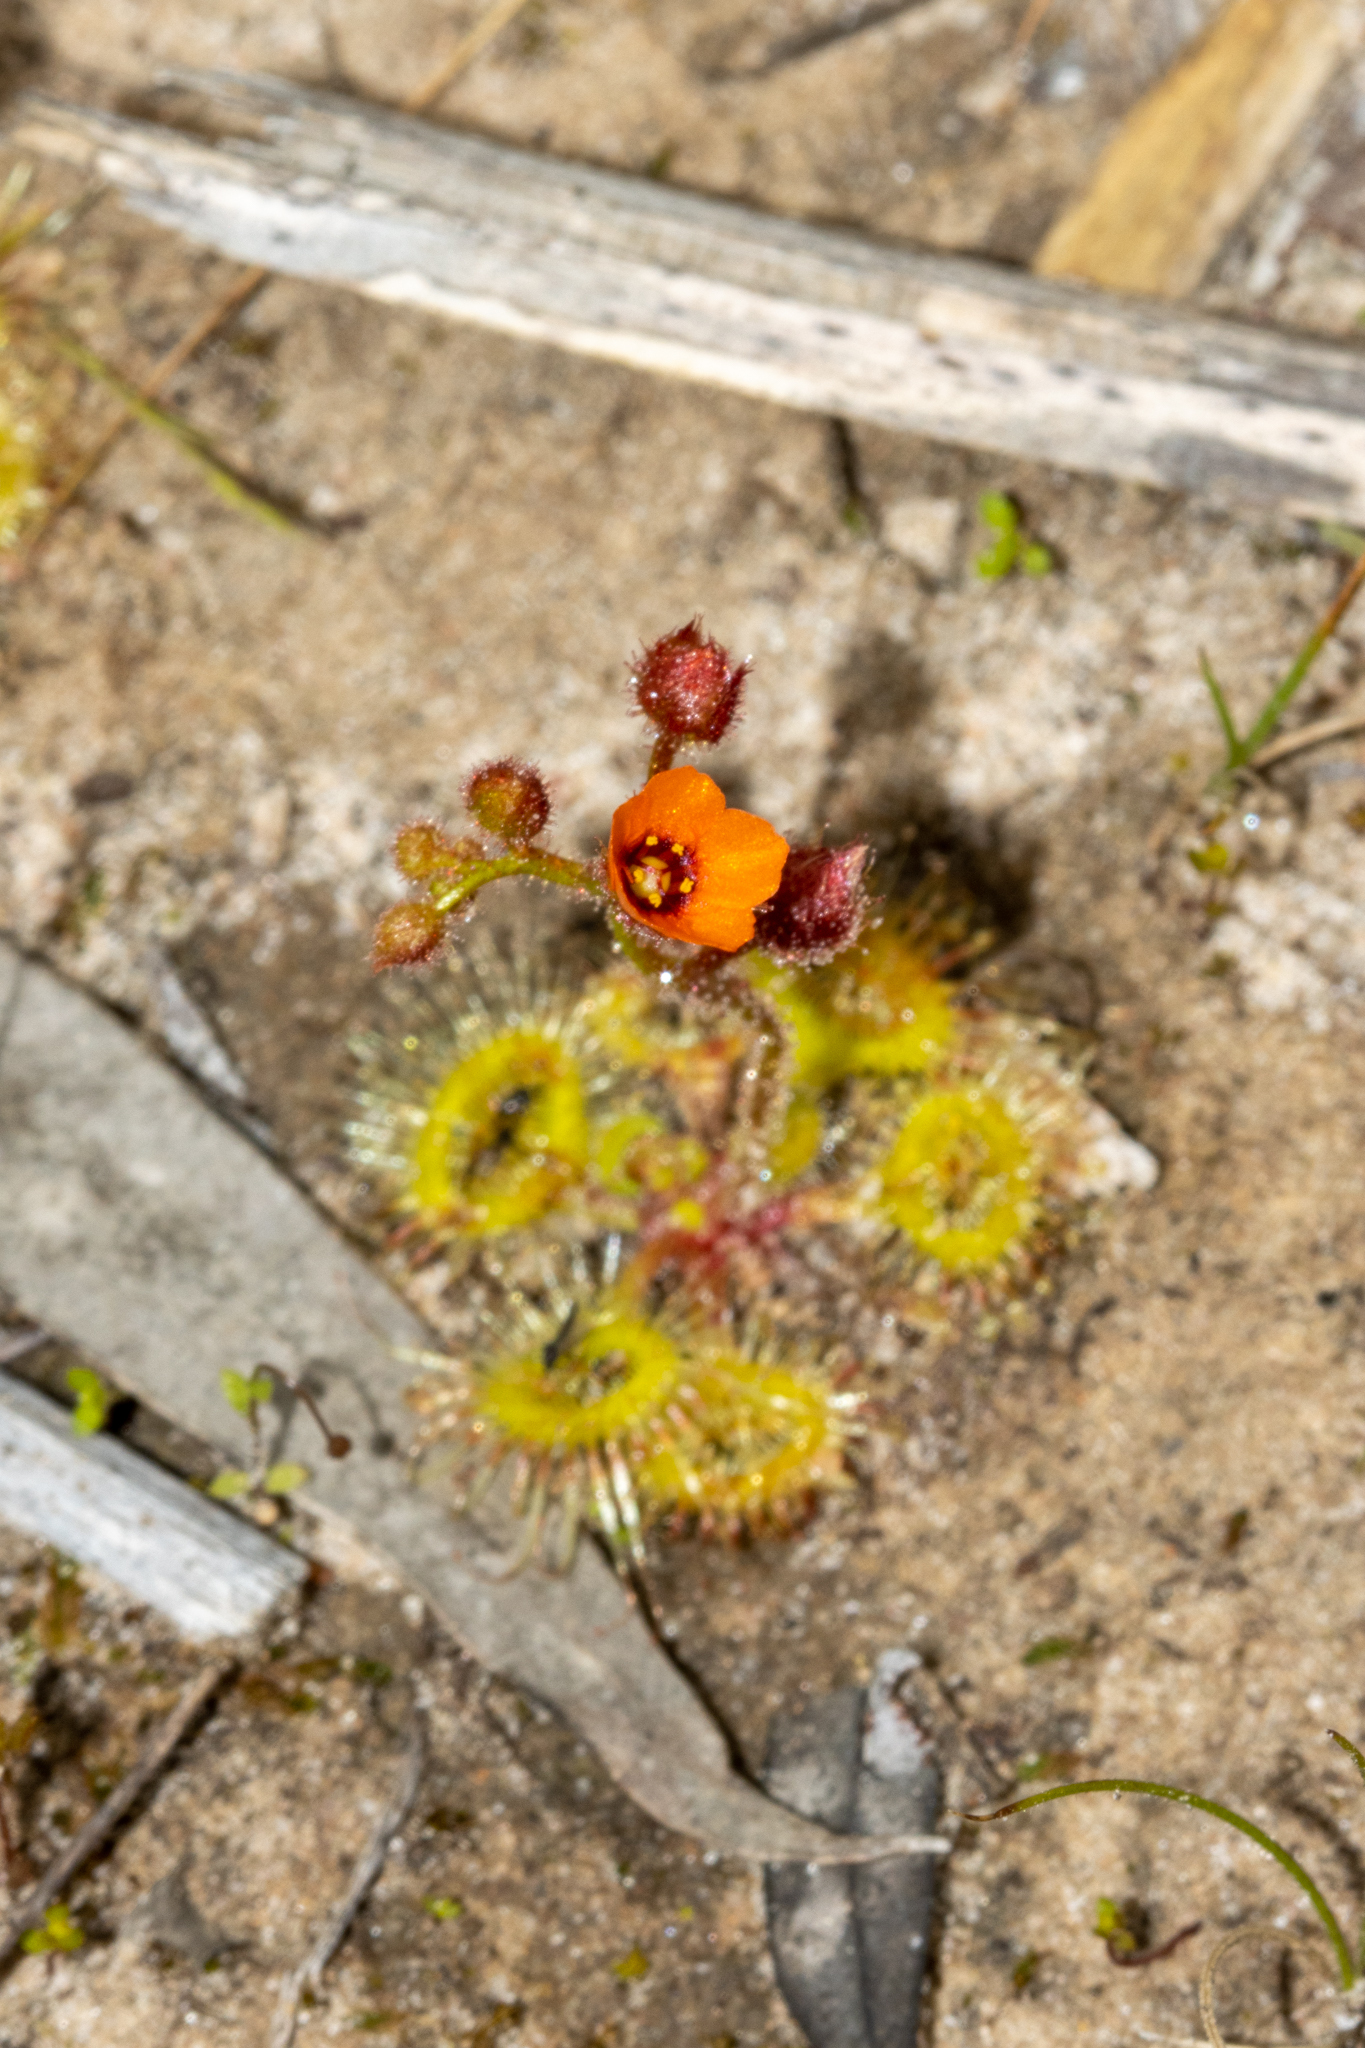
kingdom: Plantae
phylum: Tracheophyta
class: Magnoliopsida
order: Caryophyllales
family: Droseraceae
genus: Drosera
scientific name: Drosera glanduligera
